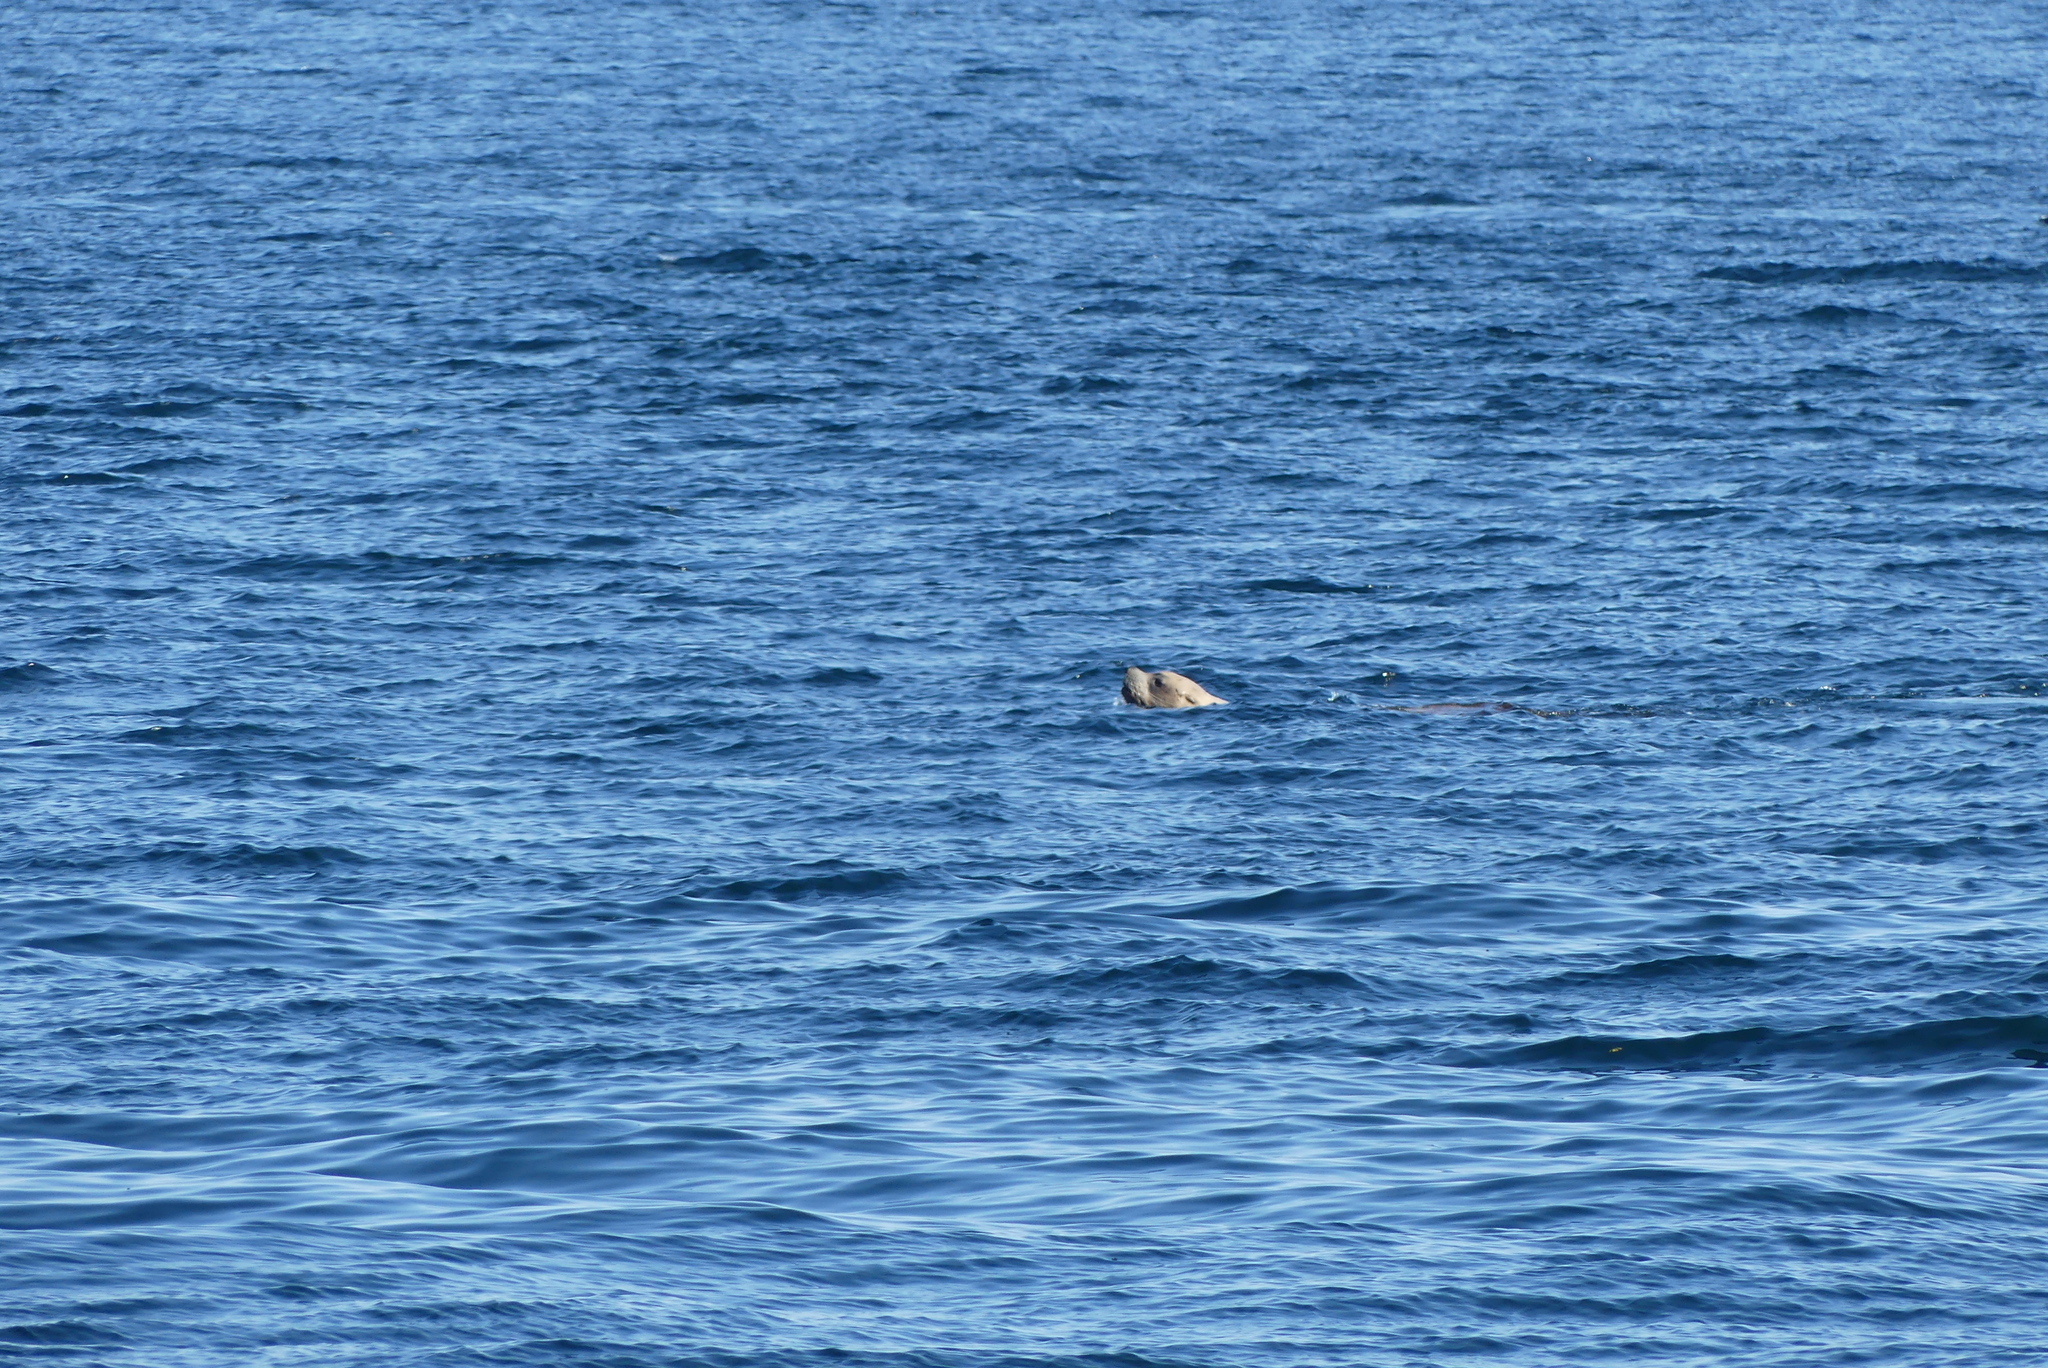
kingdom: Animalia
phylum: Chordata
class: Mammalia
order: Carnivora
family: Otariidae
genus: Eumetopias
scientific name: Eumetopias jubatus
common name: Steller sea lion
